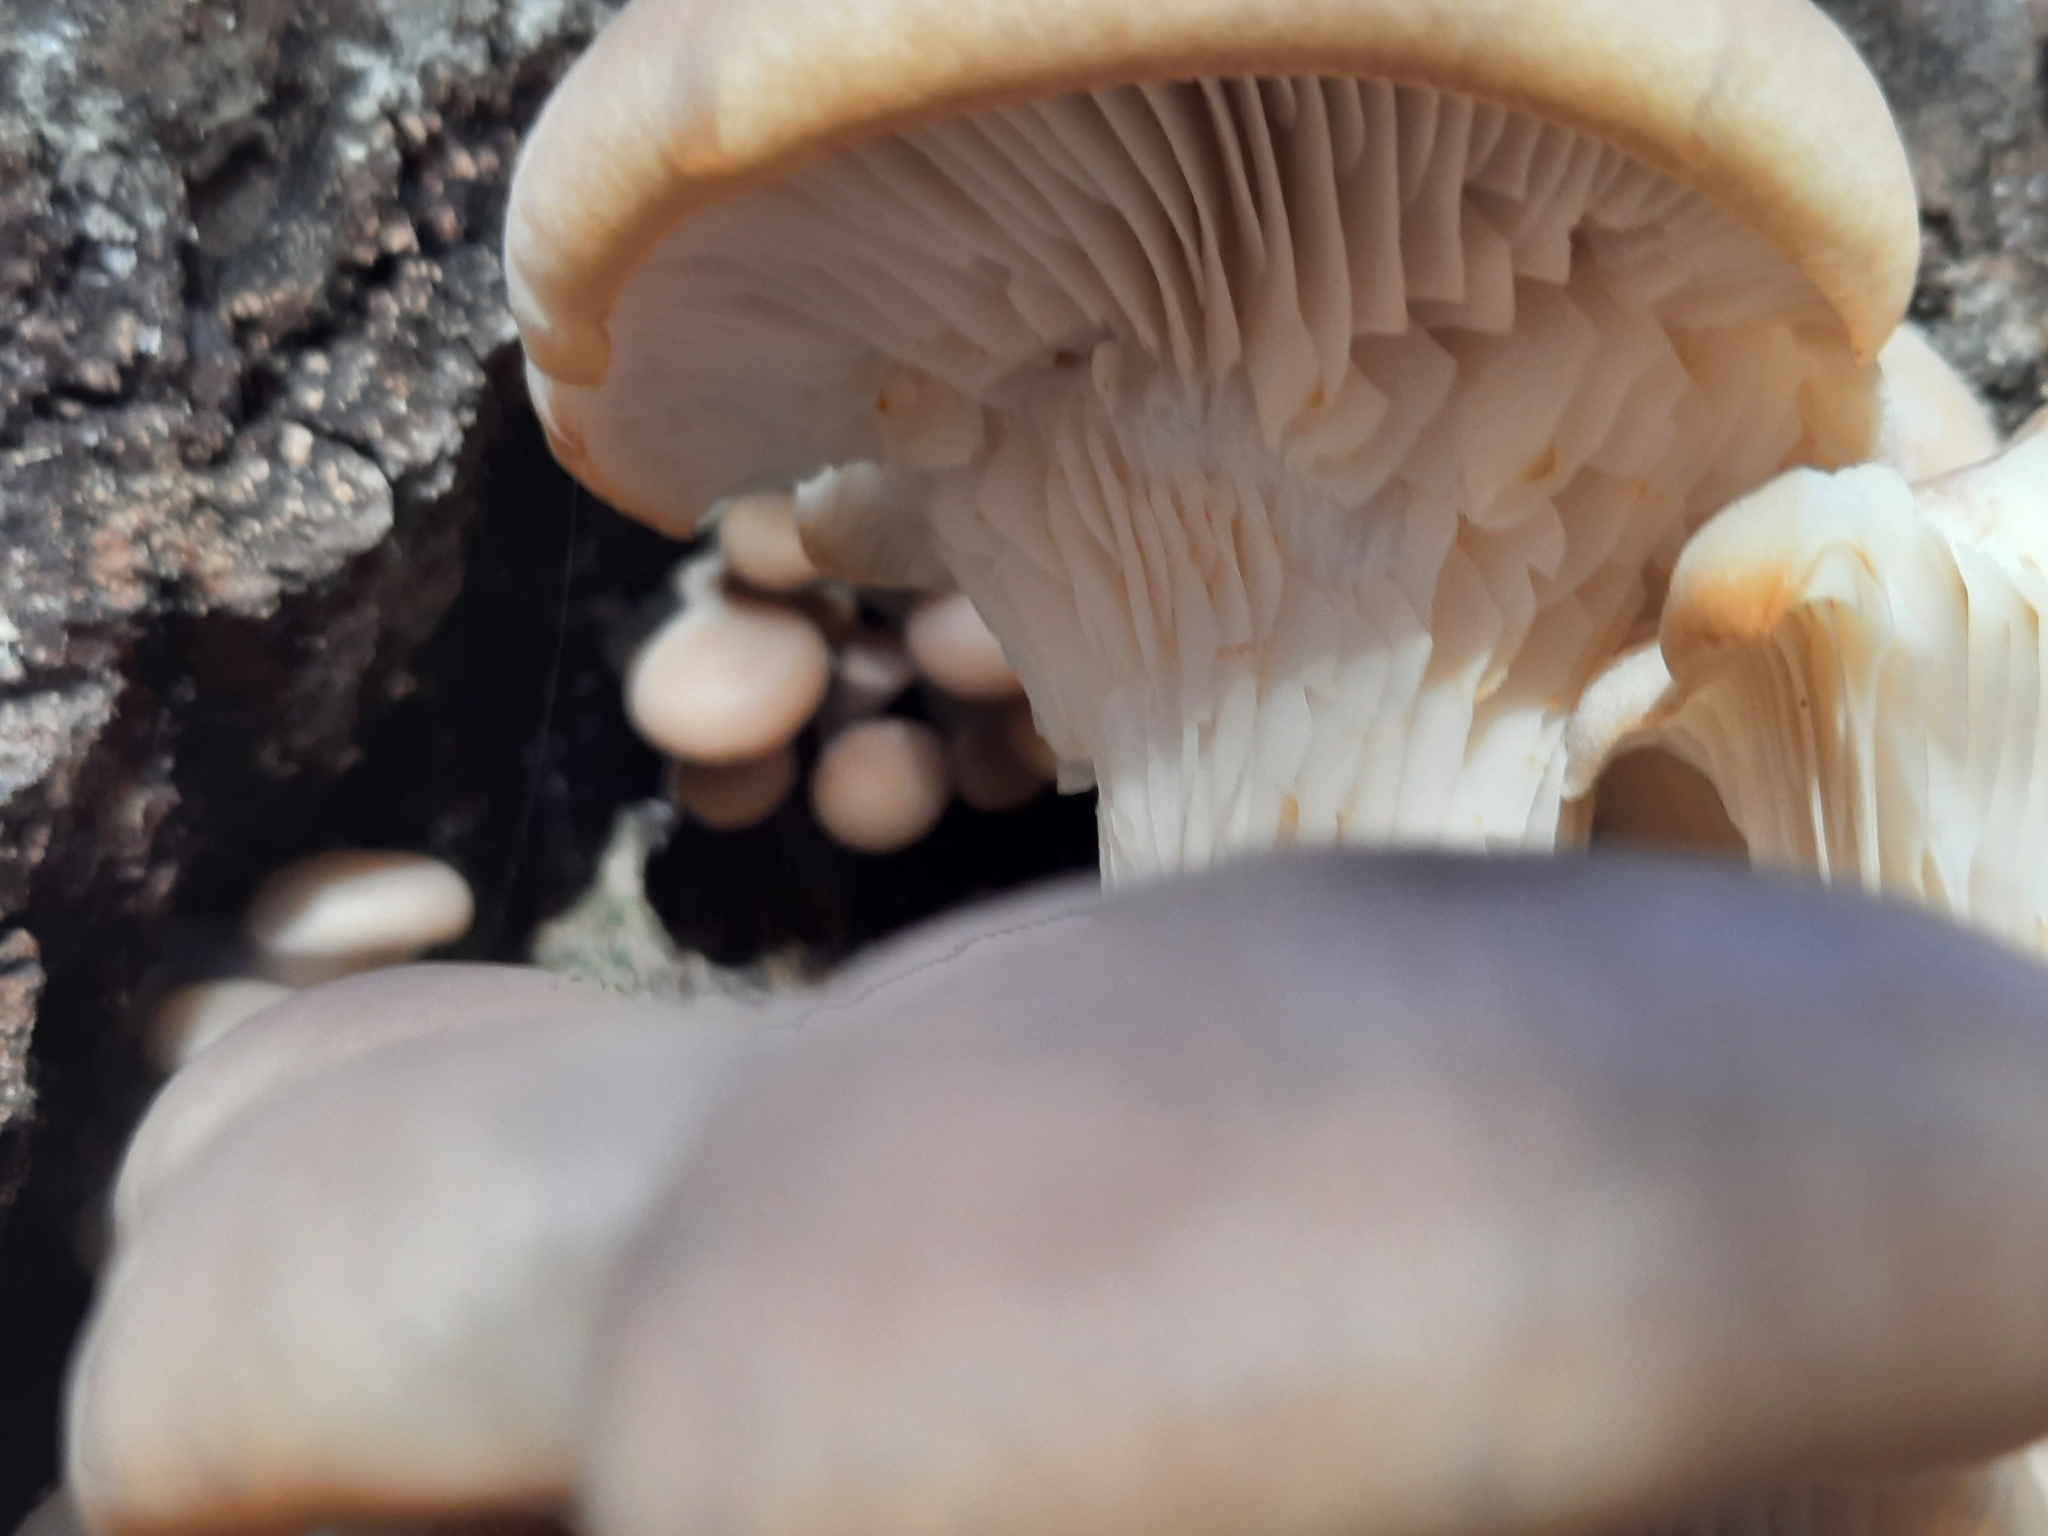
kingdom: Fungi
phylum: Basidiomycota
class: Agaricomycetes
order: Agaricales
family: Pleurotaceae
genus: Pleurotus
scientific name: Pleurotus ostreatus
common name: Oyster mushroom
